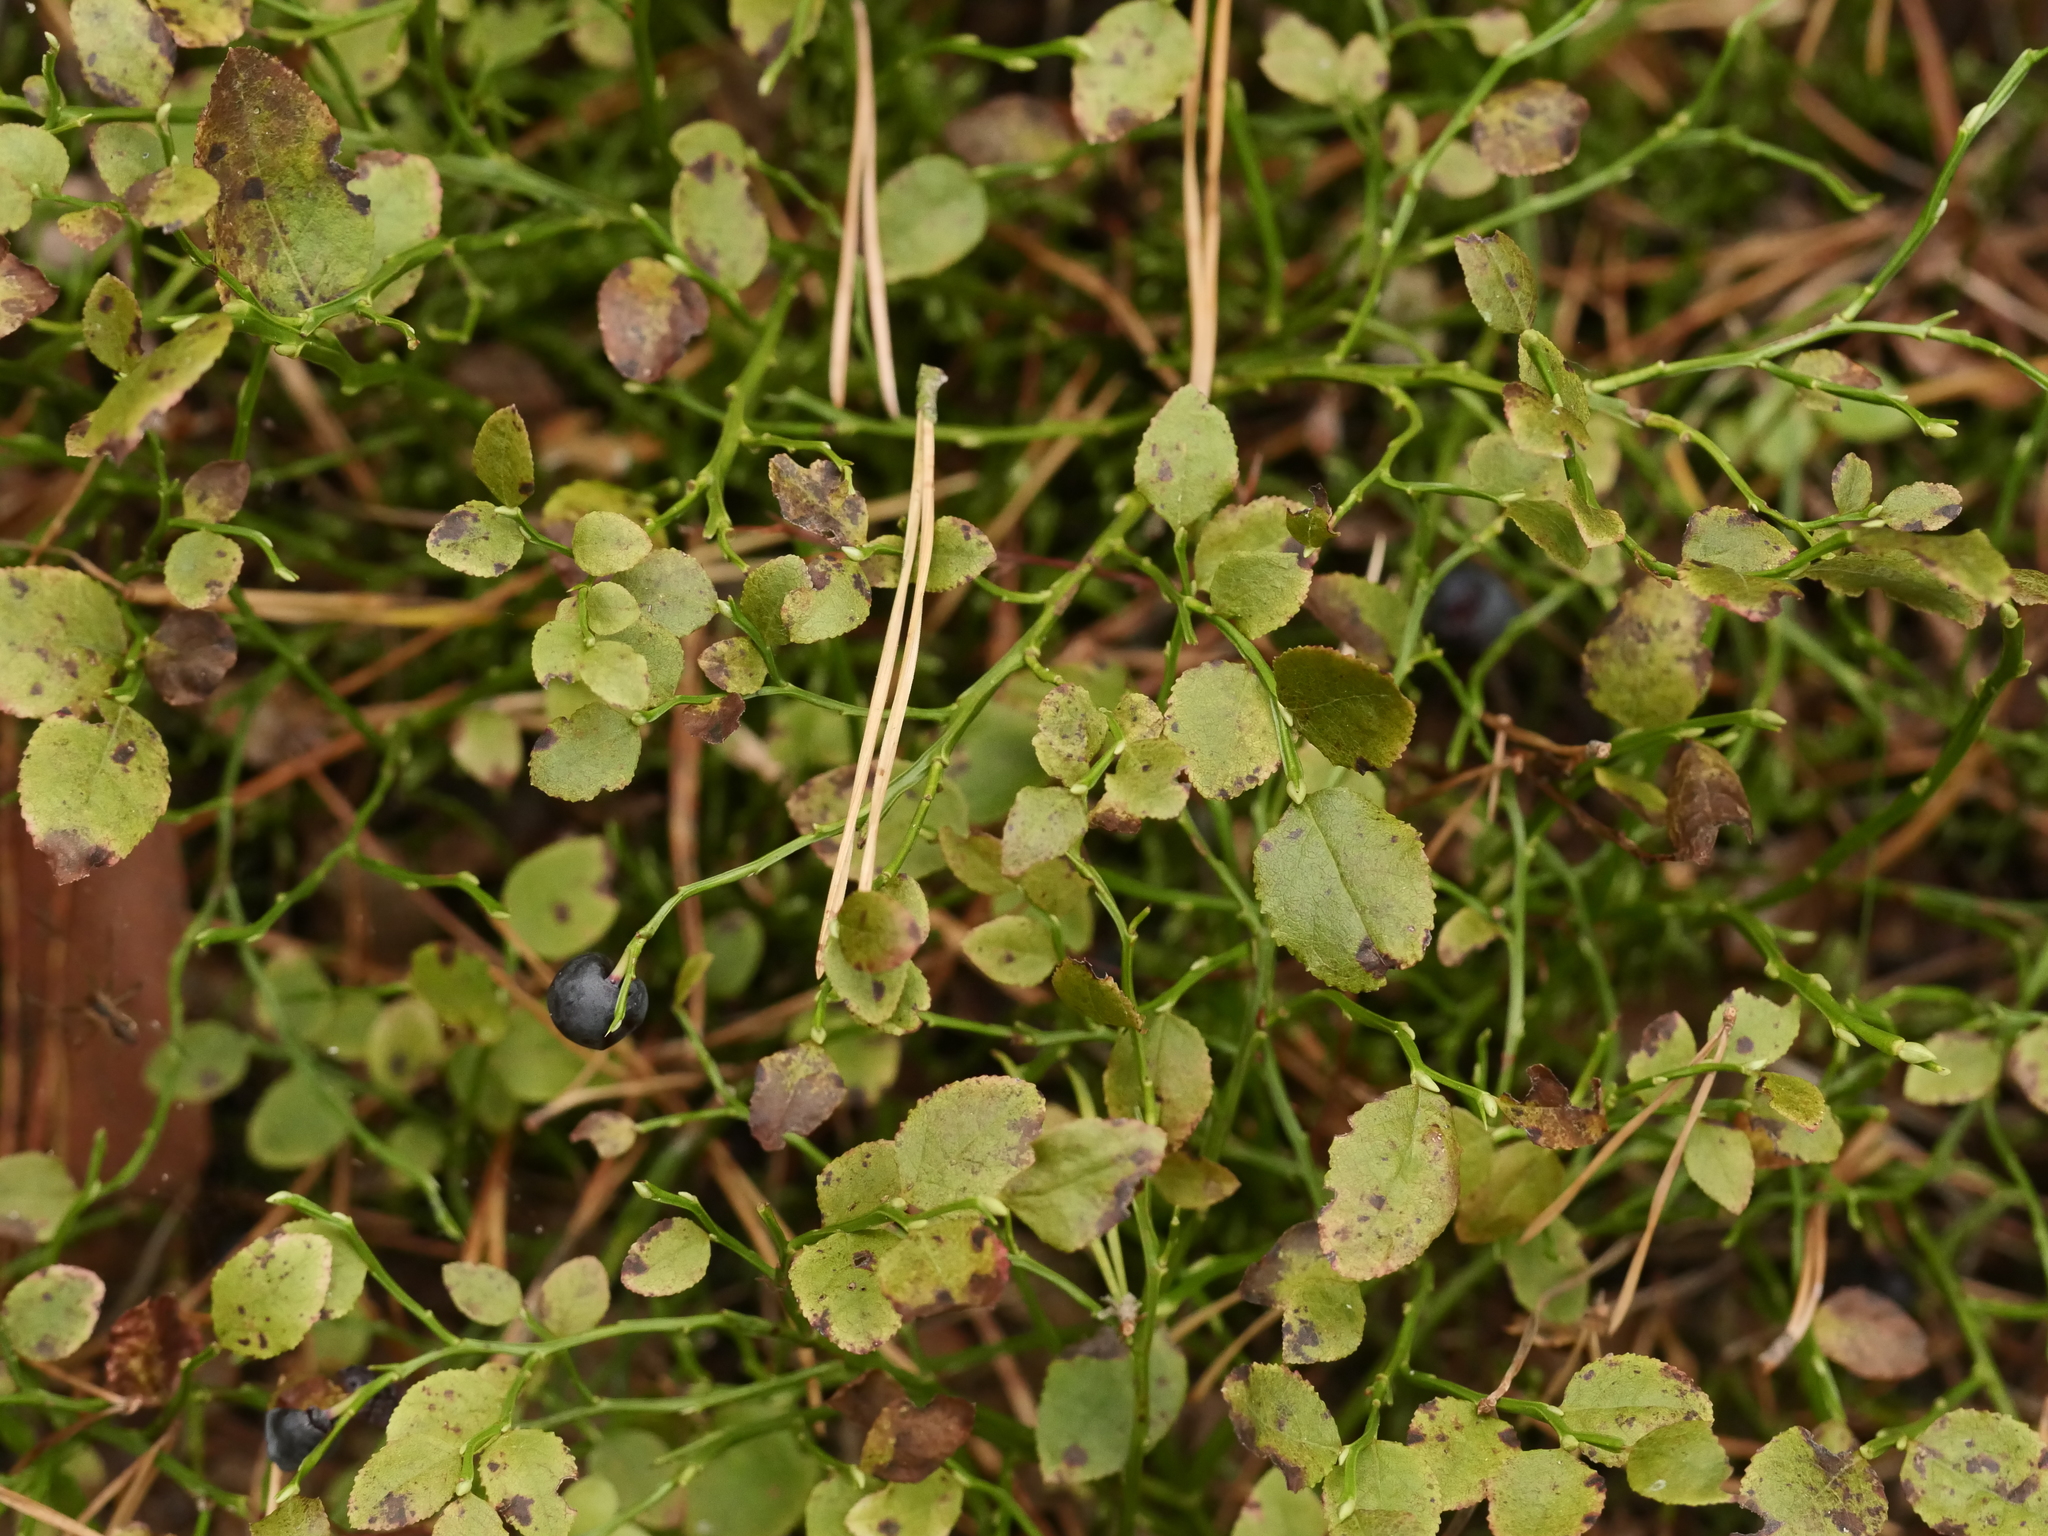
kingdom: Plantae
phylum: Tracheophyta
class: Magnoliopsida
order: Ericales
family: Ericaceae
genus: Vaccinium
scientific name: Vaccinium myrtillus
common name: Bilberry
